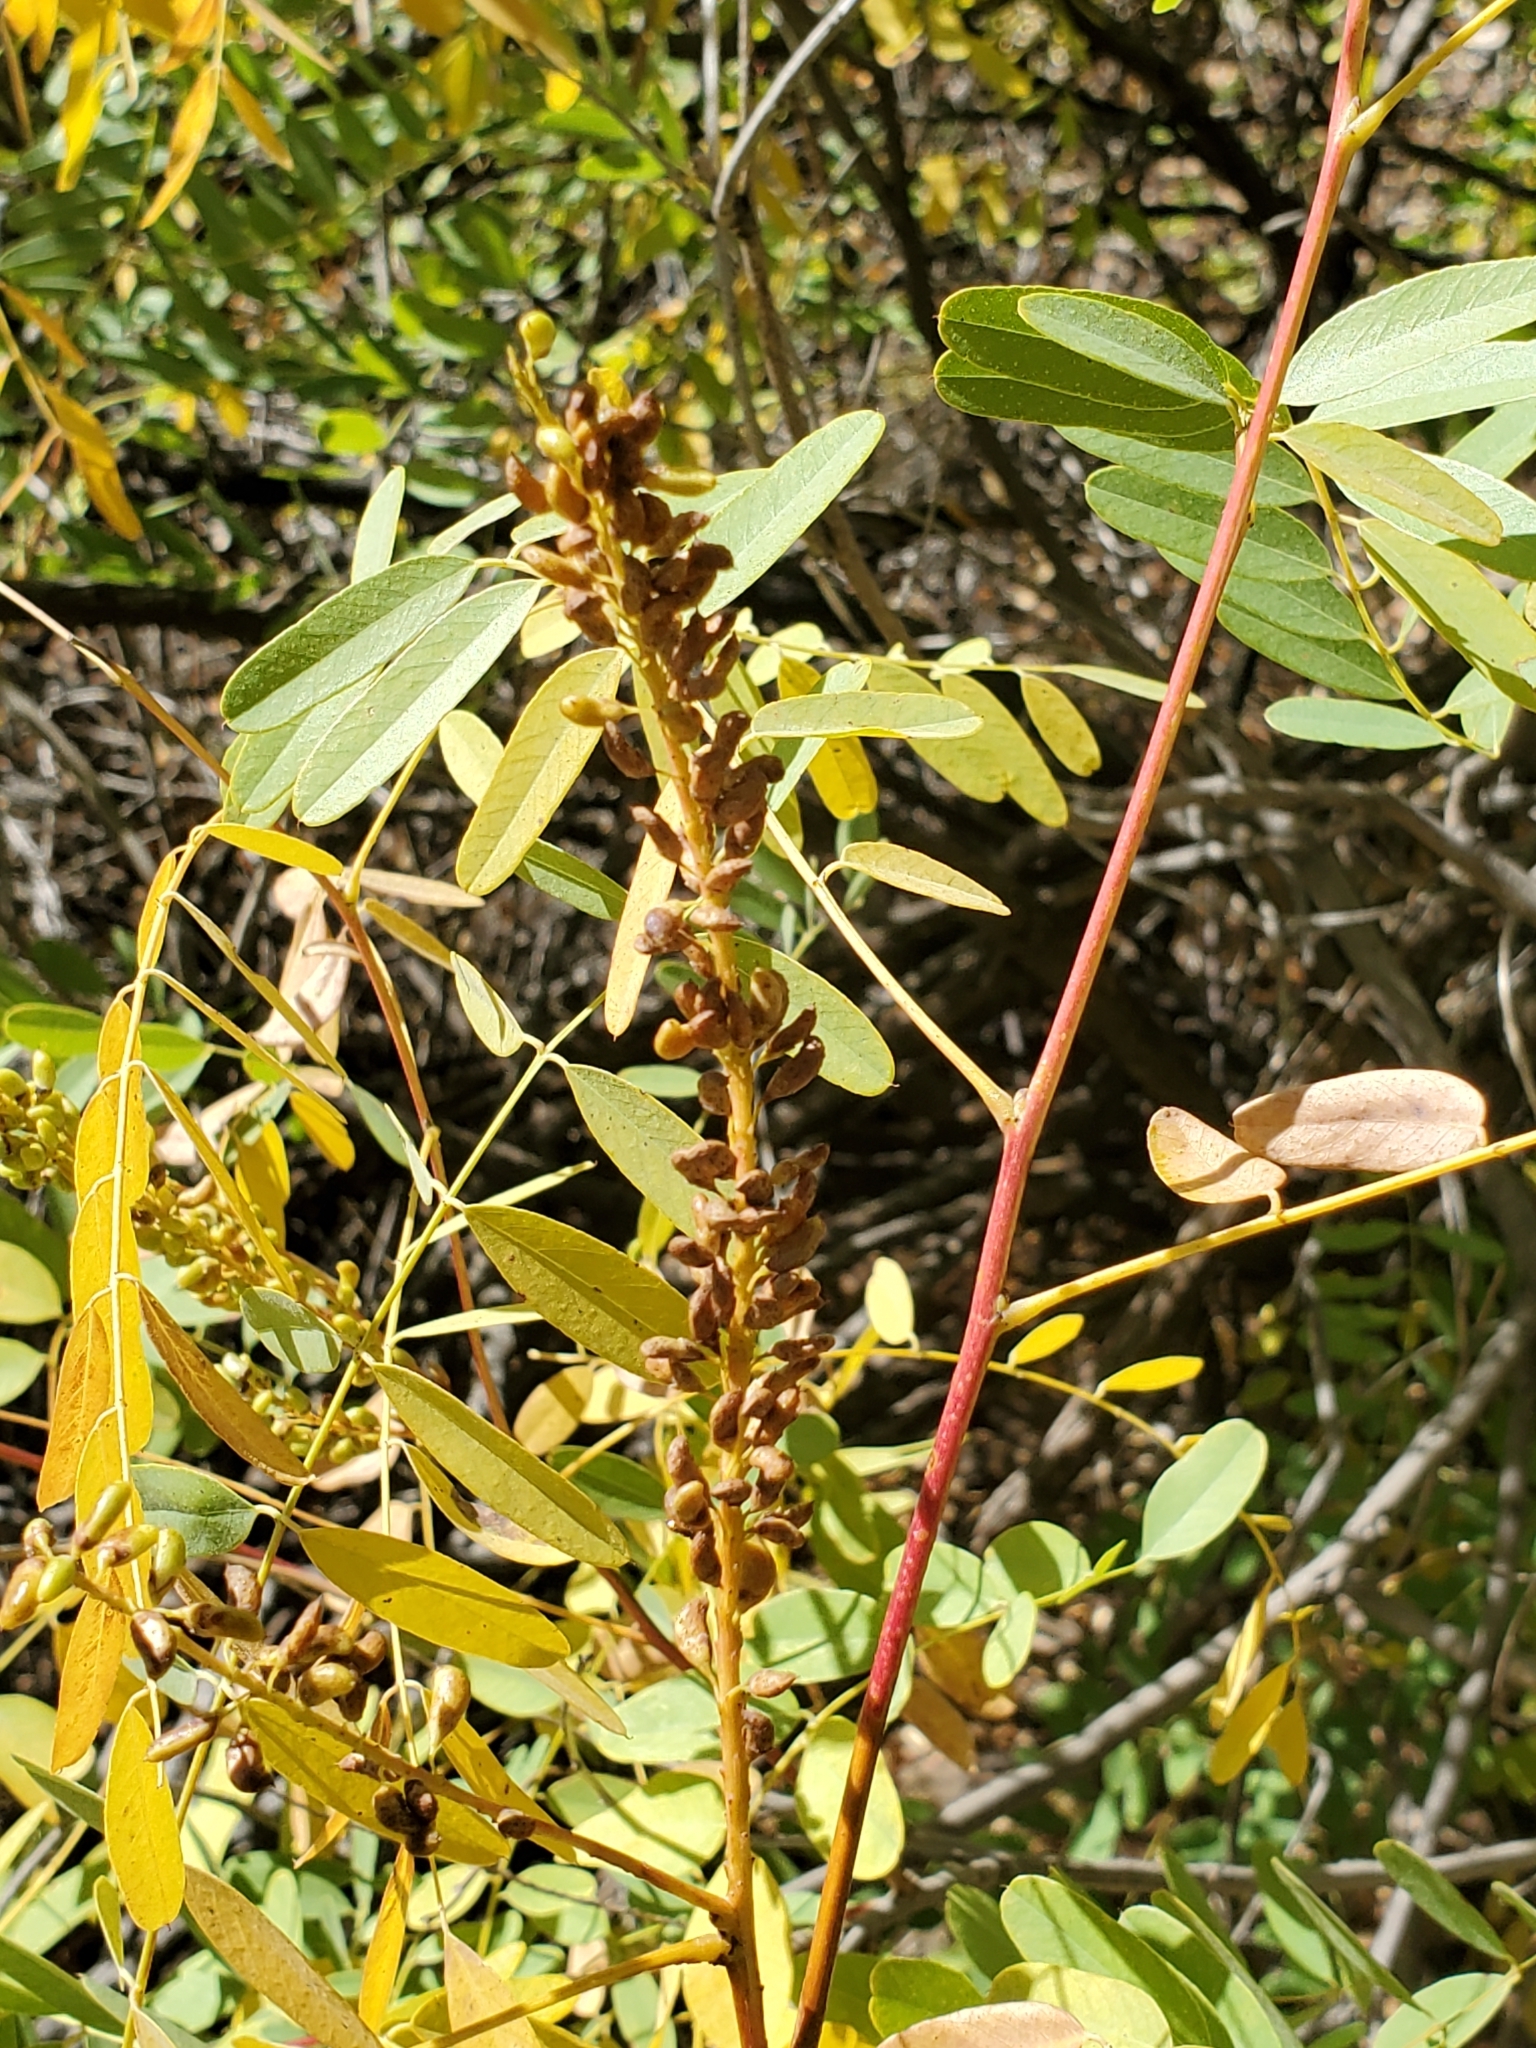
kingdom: Plantae
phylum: Tracheophyta
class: Magnoliopsida
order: Fabales
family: Fabaceae
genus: Amorpha
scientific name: Amorpha fruticosa
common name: False indigo
